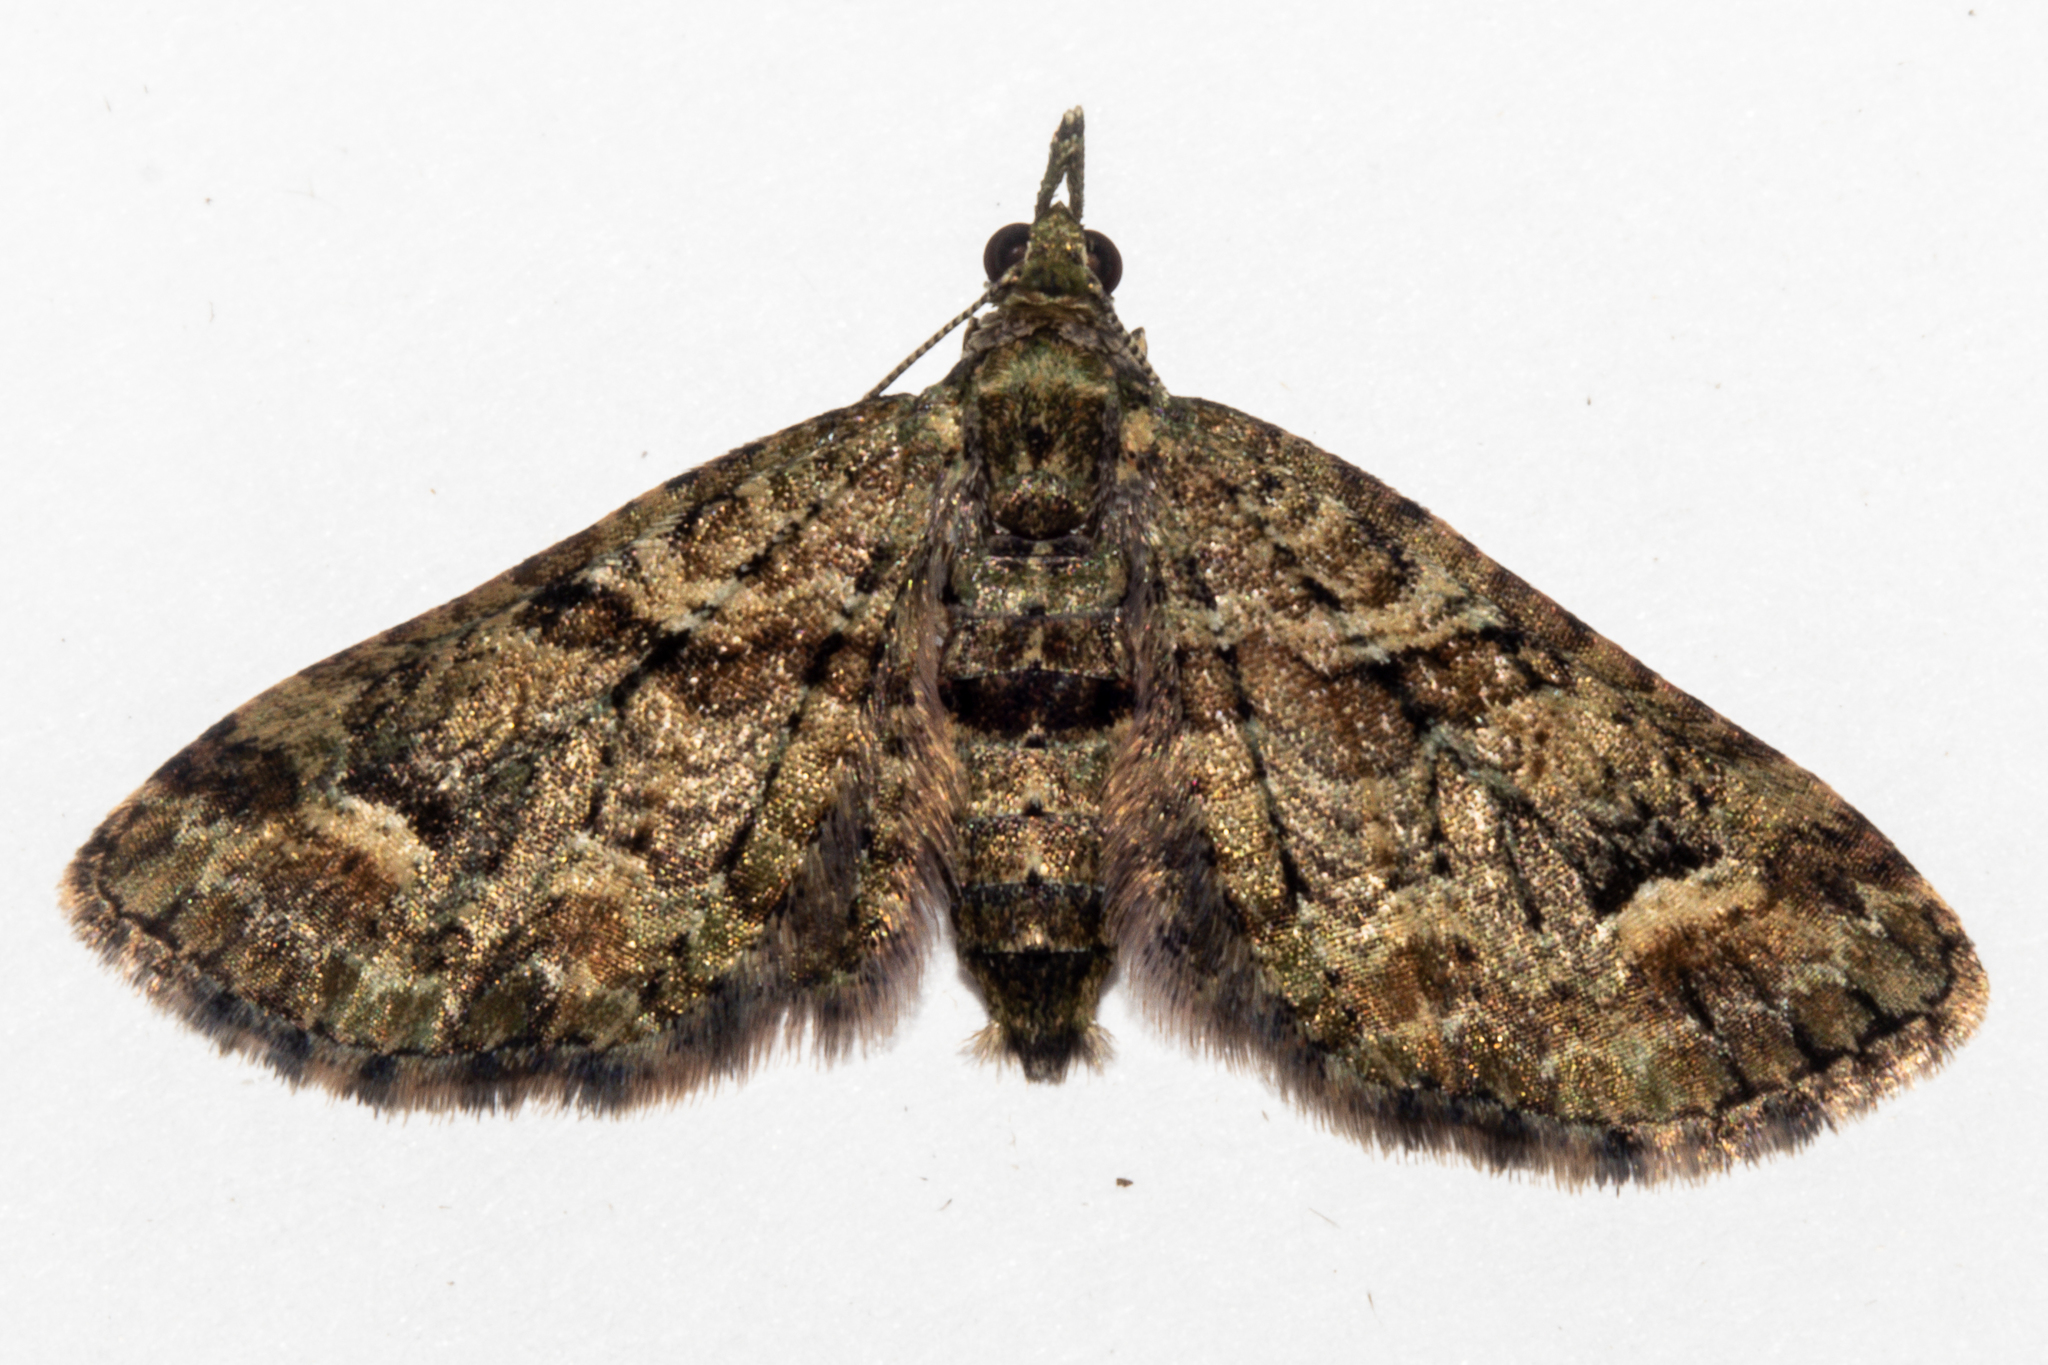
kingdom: Animalia
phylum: Arthropoda
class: Insecta
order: Lepidoptera
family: Geometridae
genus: Idaea
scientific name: Idaea mutanda
